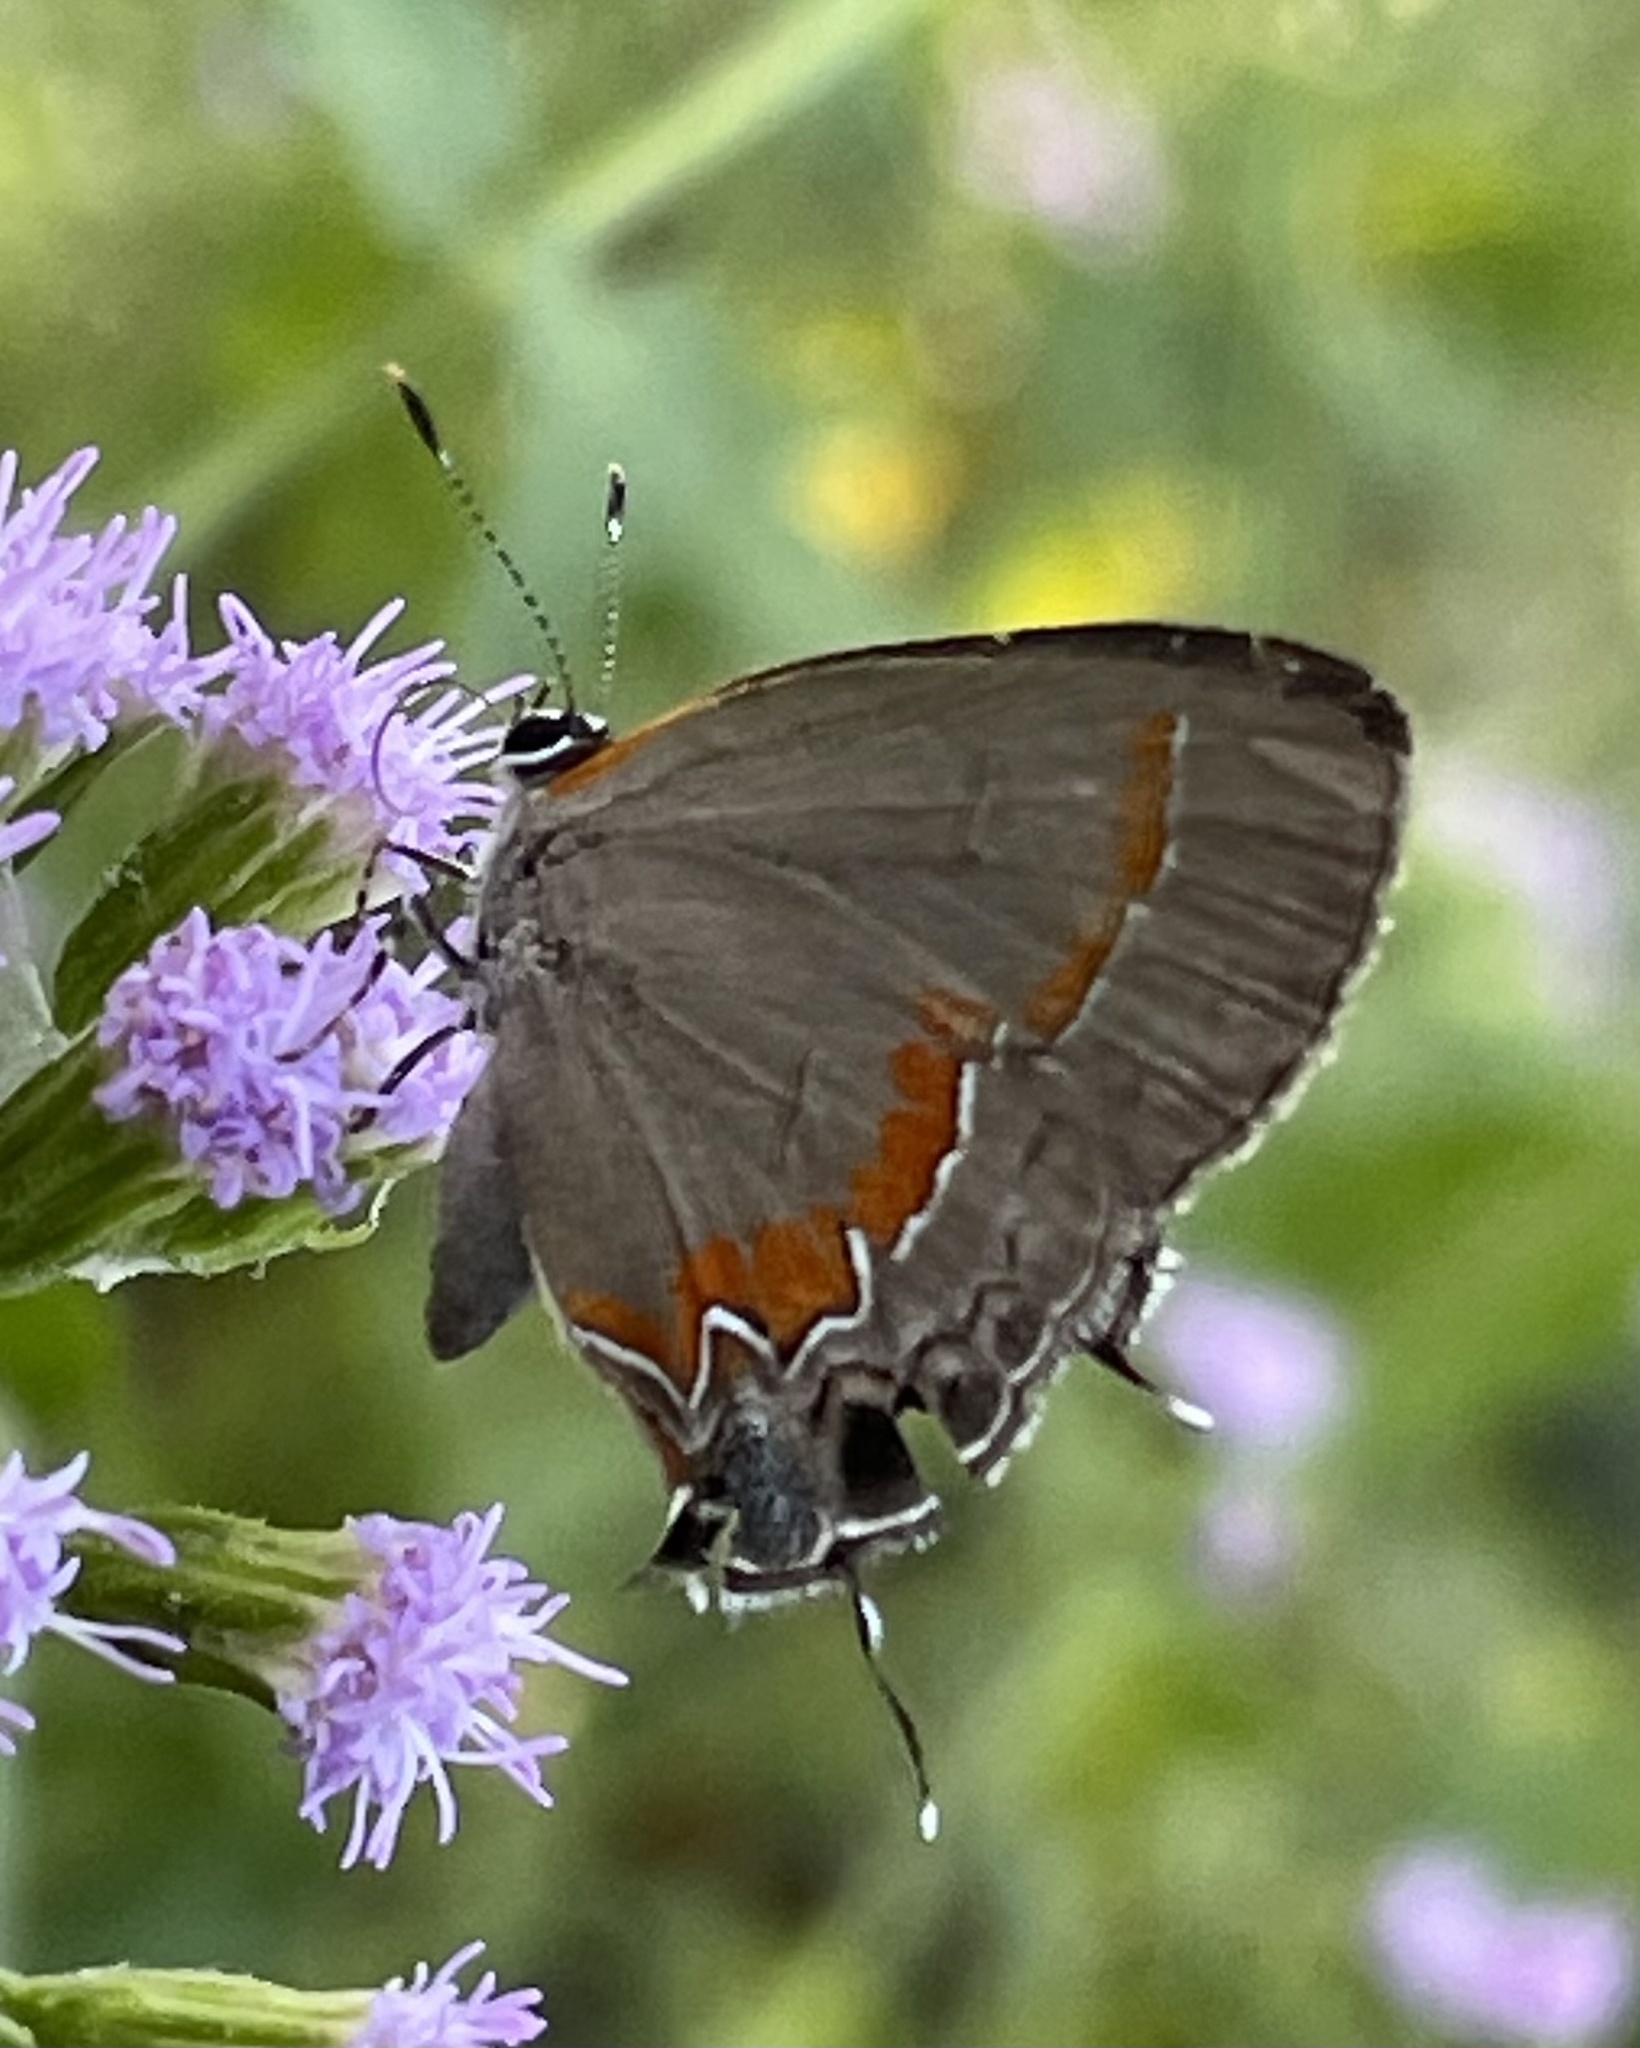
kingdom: Animalia
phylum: Arthropoda
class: Insecta
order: Lepidoptera
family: Lycaenidae
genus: Calycopis
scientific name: Calycopis cecrops
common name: Red-banded hairstreak
